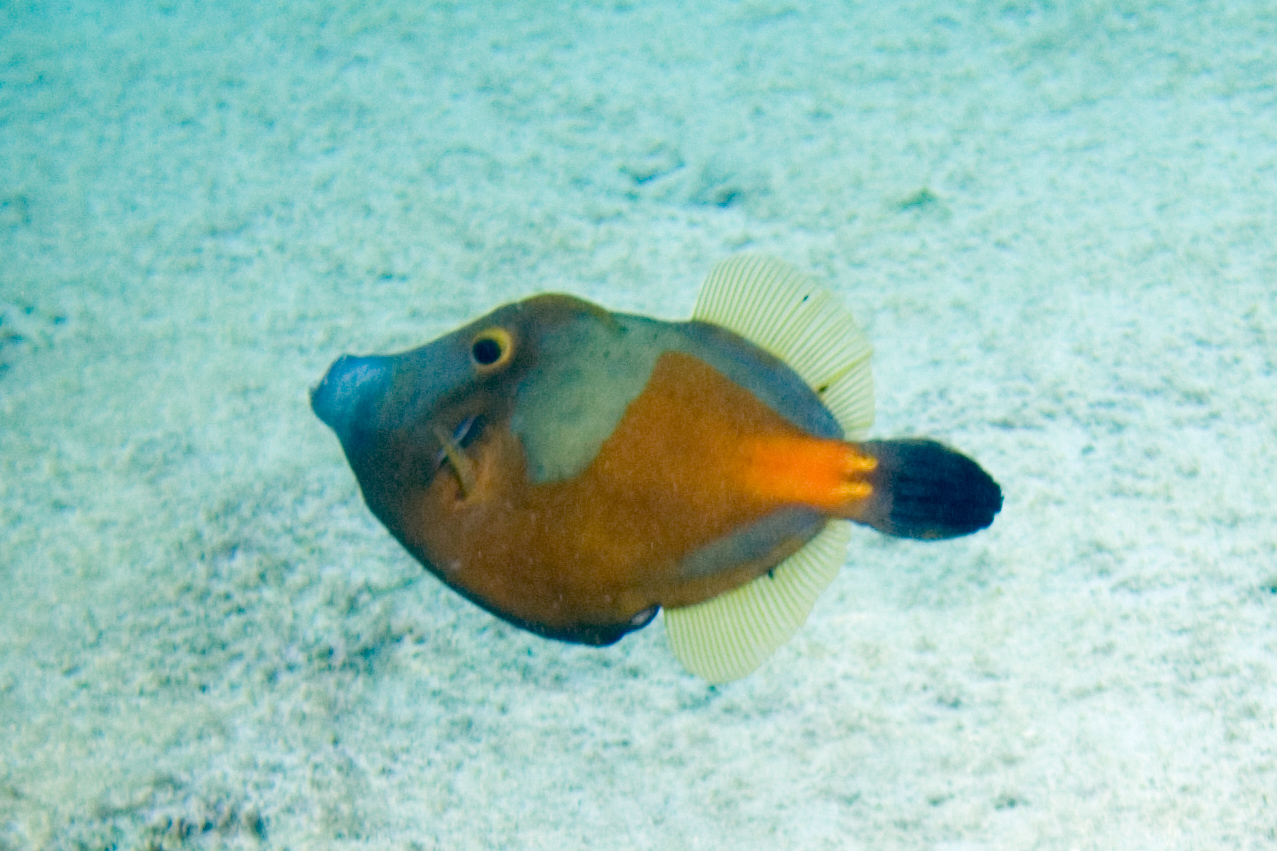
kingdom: Animalia
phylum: Chordata
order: Tetraodontiformes
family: Monacanthidae
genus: Cantherhines
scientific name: Cantherhines macrocerus
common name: Whitespotted filefish
